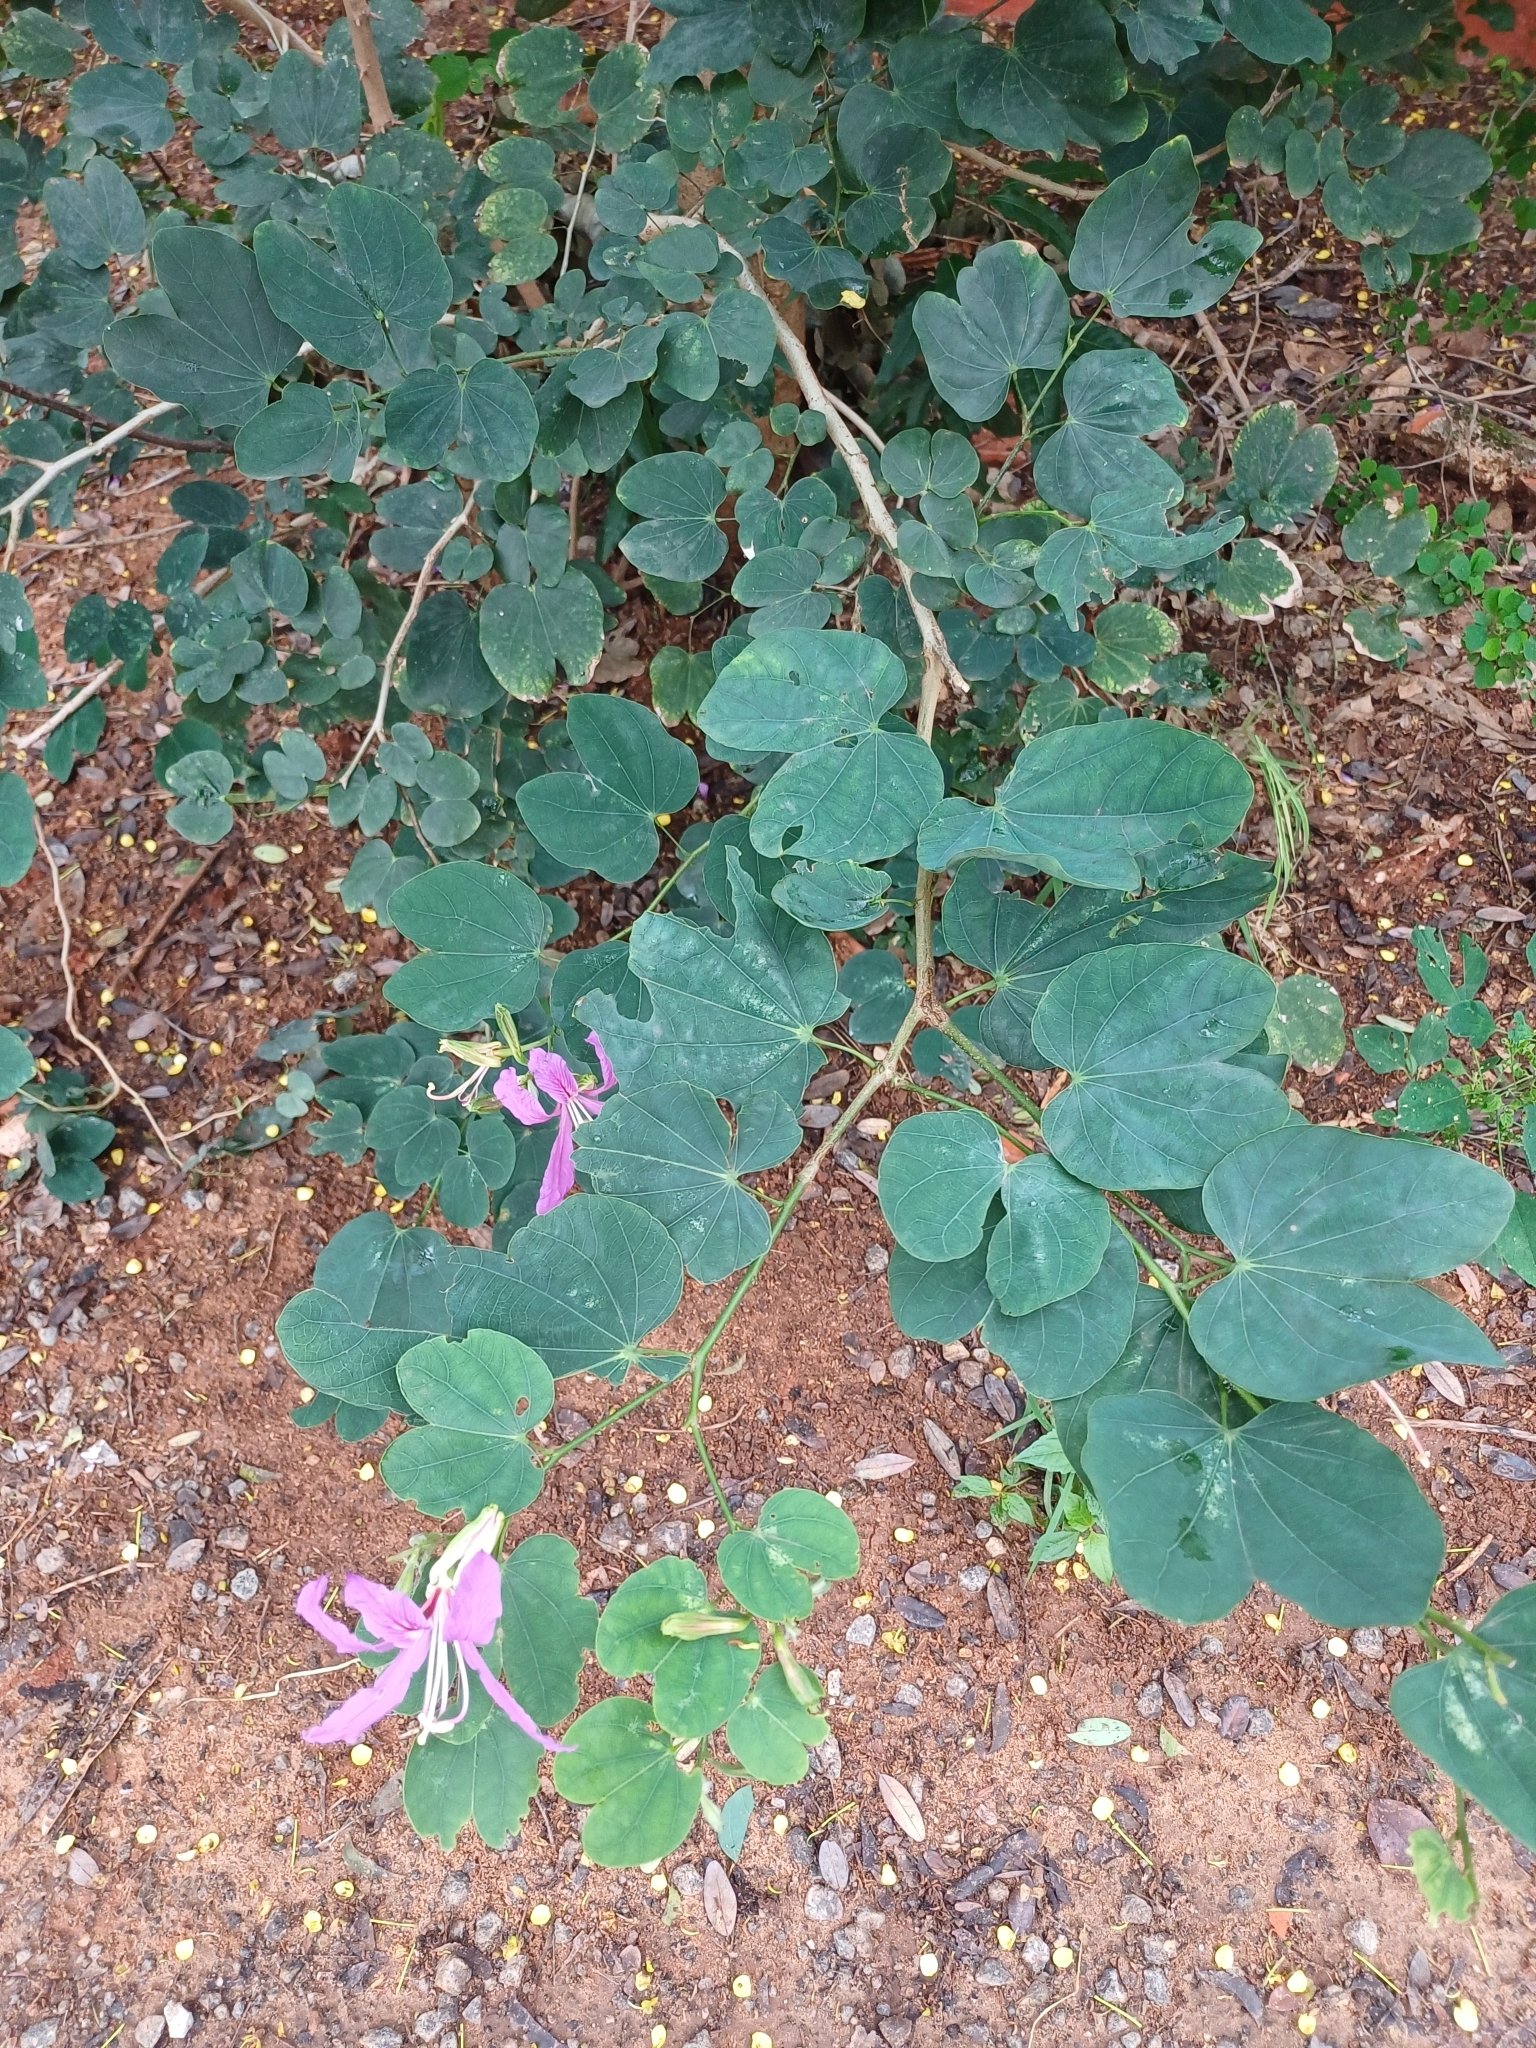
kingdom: Plantae
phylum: Tracheophyta
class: Magnoliopsida
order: Fabales
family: Fabaceae
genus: Bauhinia
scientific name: Bauhinia purpurea
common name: Butterfly-tree
